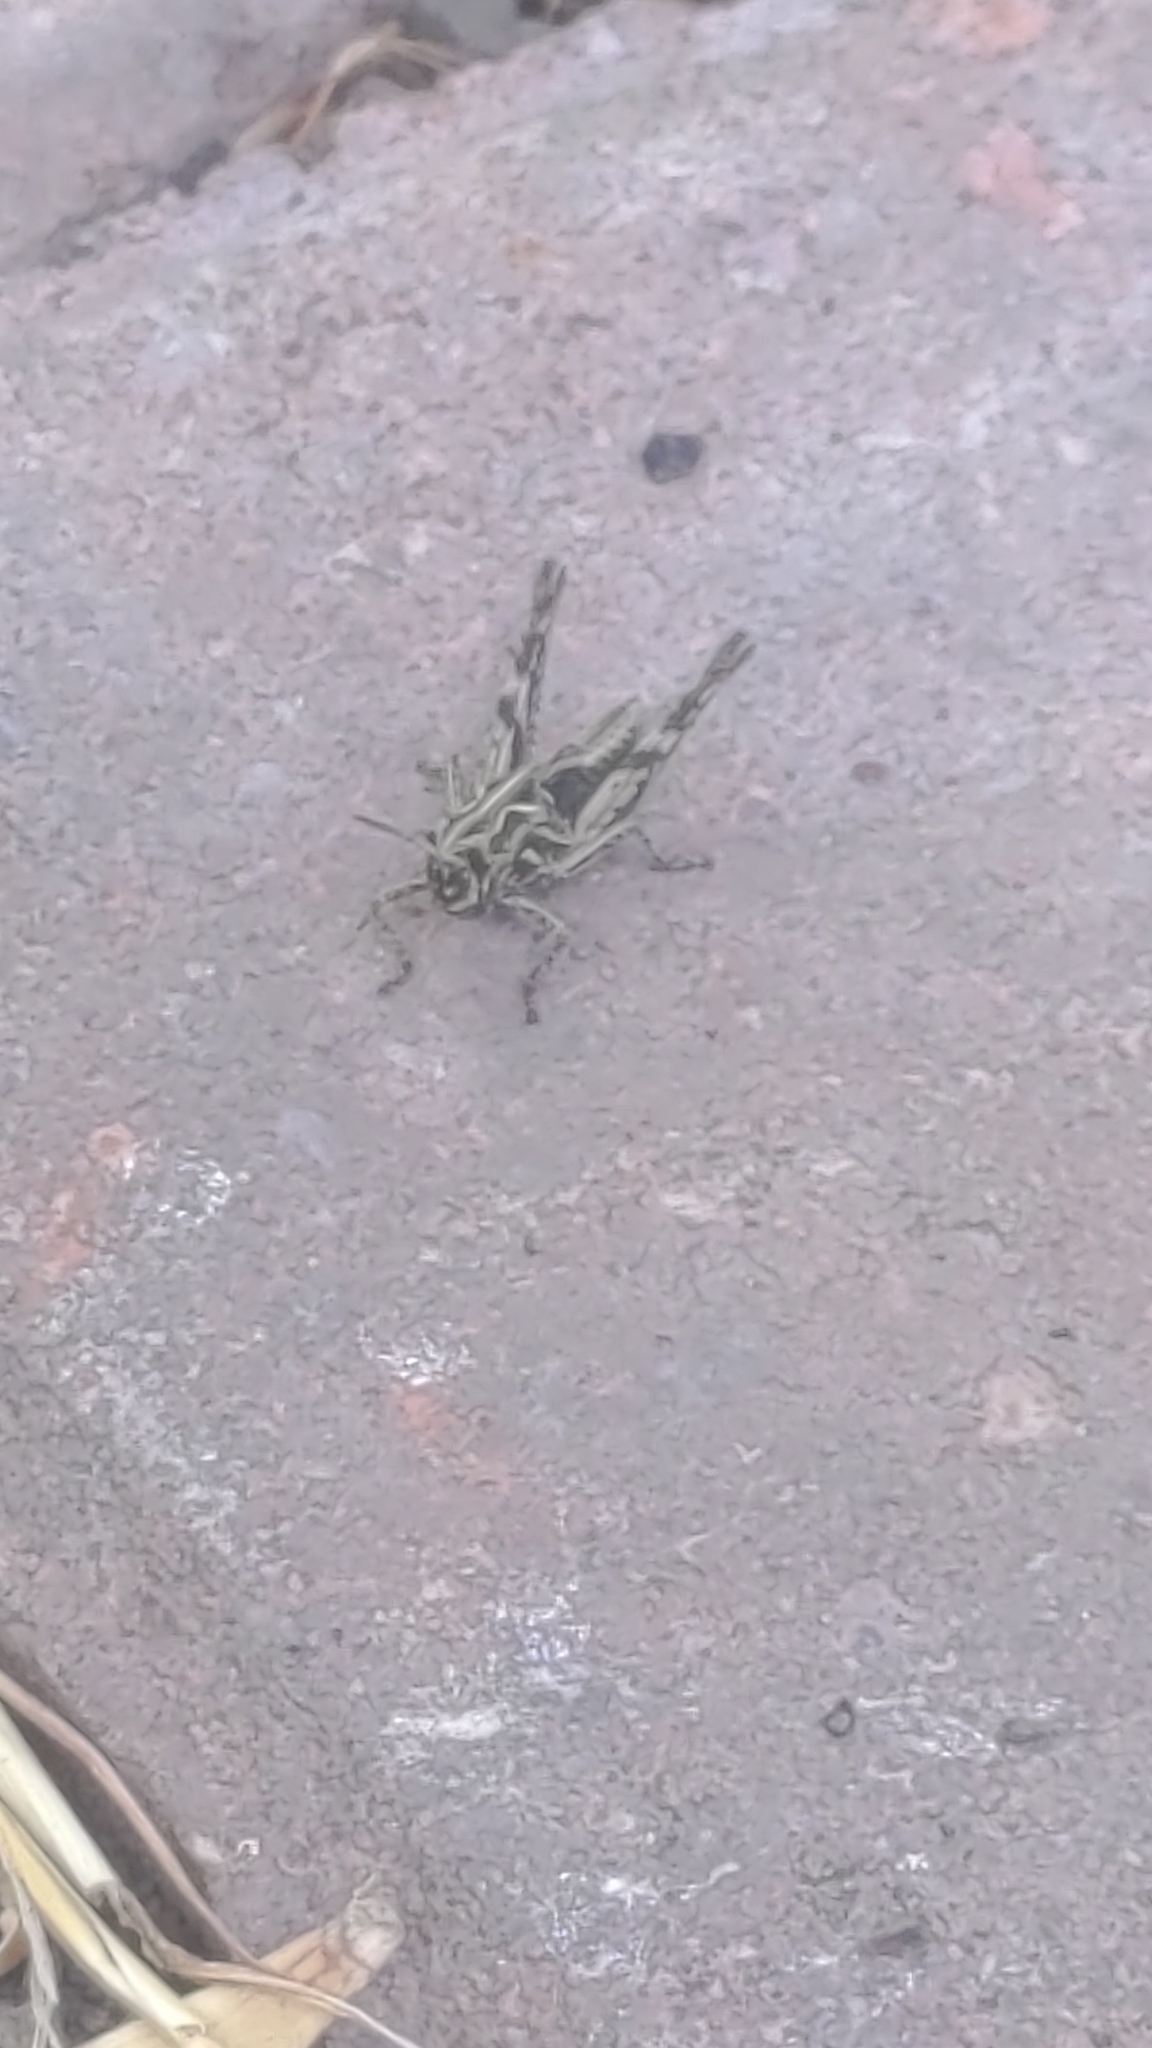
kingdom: Animalia
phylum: Arthropoda
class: Insecta
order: Orthoptera
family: Acrididae
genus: Chorthippus
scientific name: Chorthippus brunneus
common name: Field grasshopper
